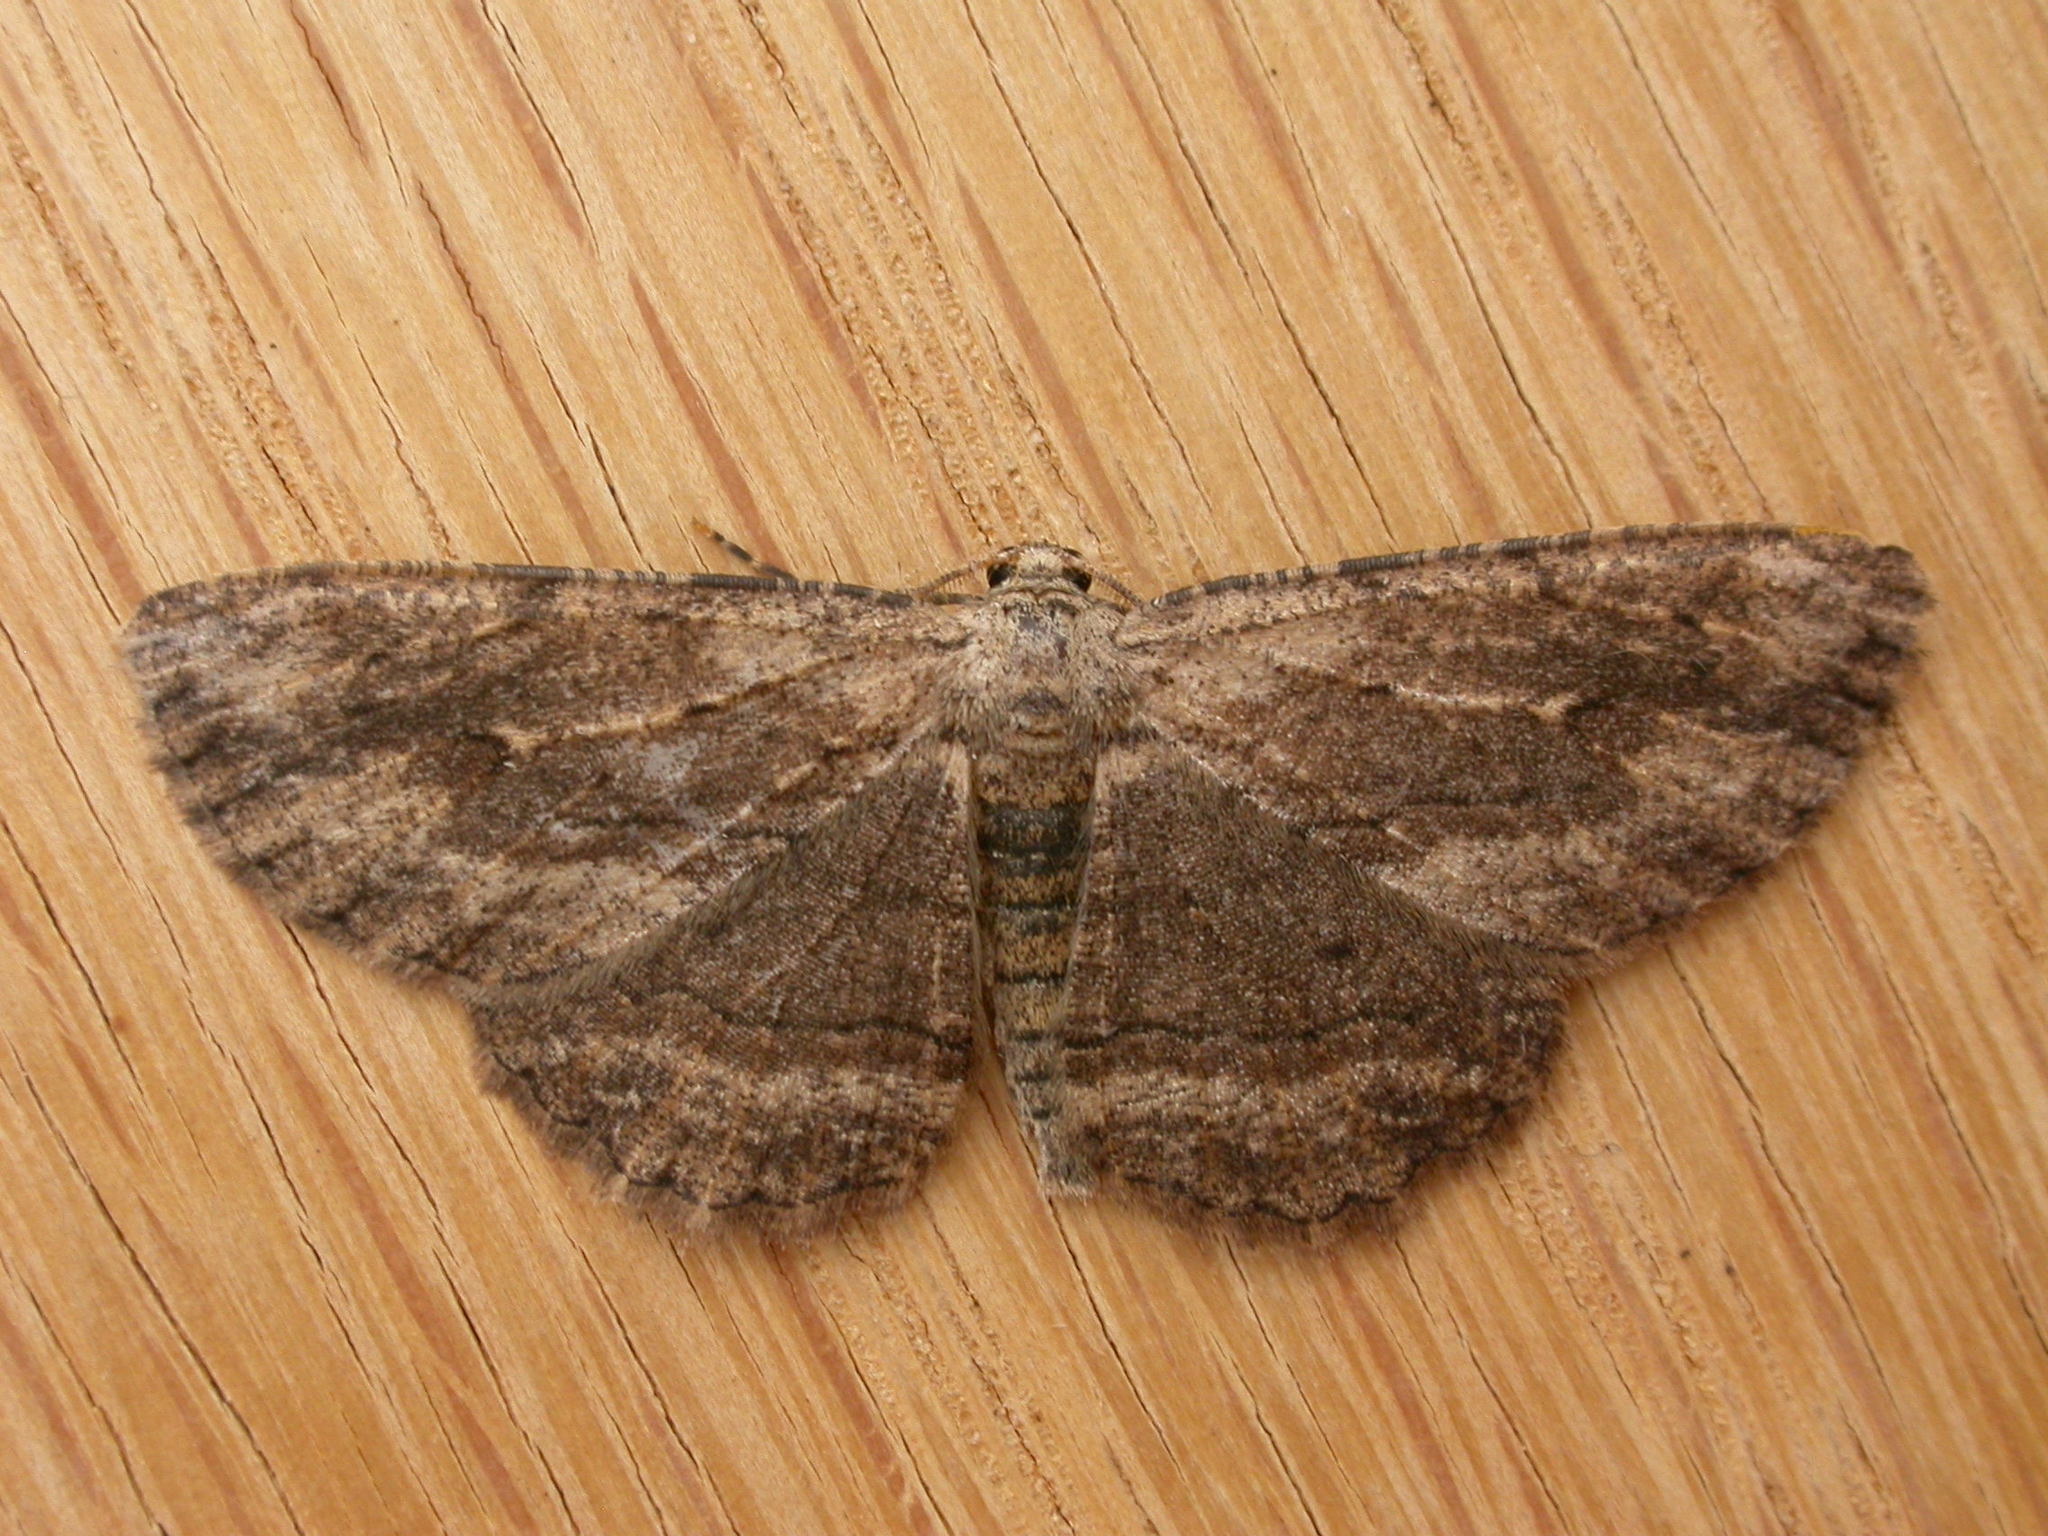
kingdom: Animalia
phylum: Arthropoda
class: Insecta
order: Lepidoptera
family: Geometridae
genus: Ectropis
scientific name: Ectropis excursaria
